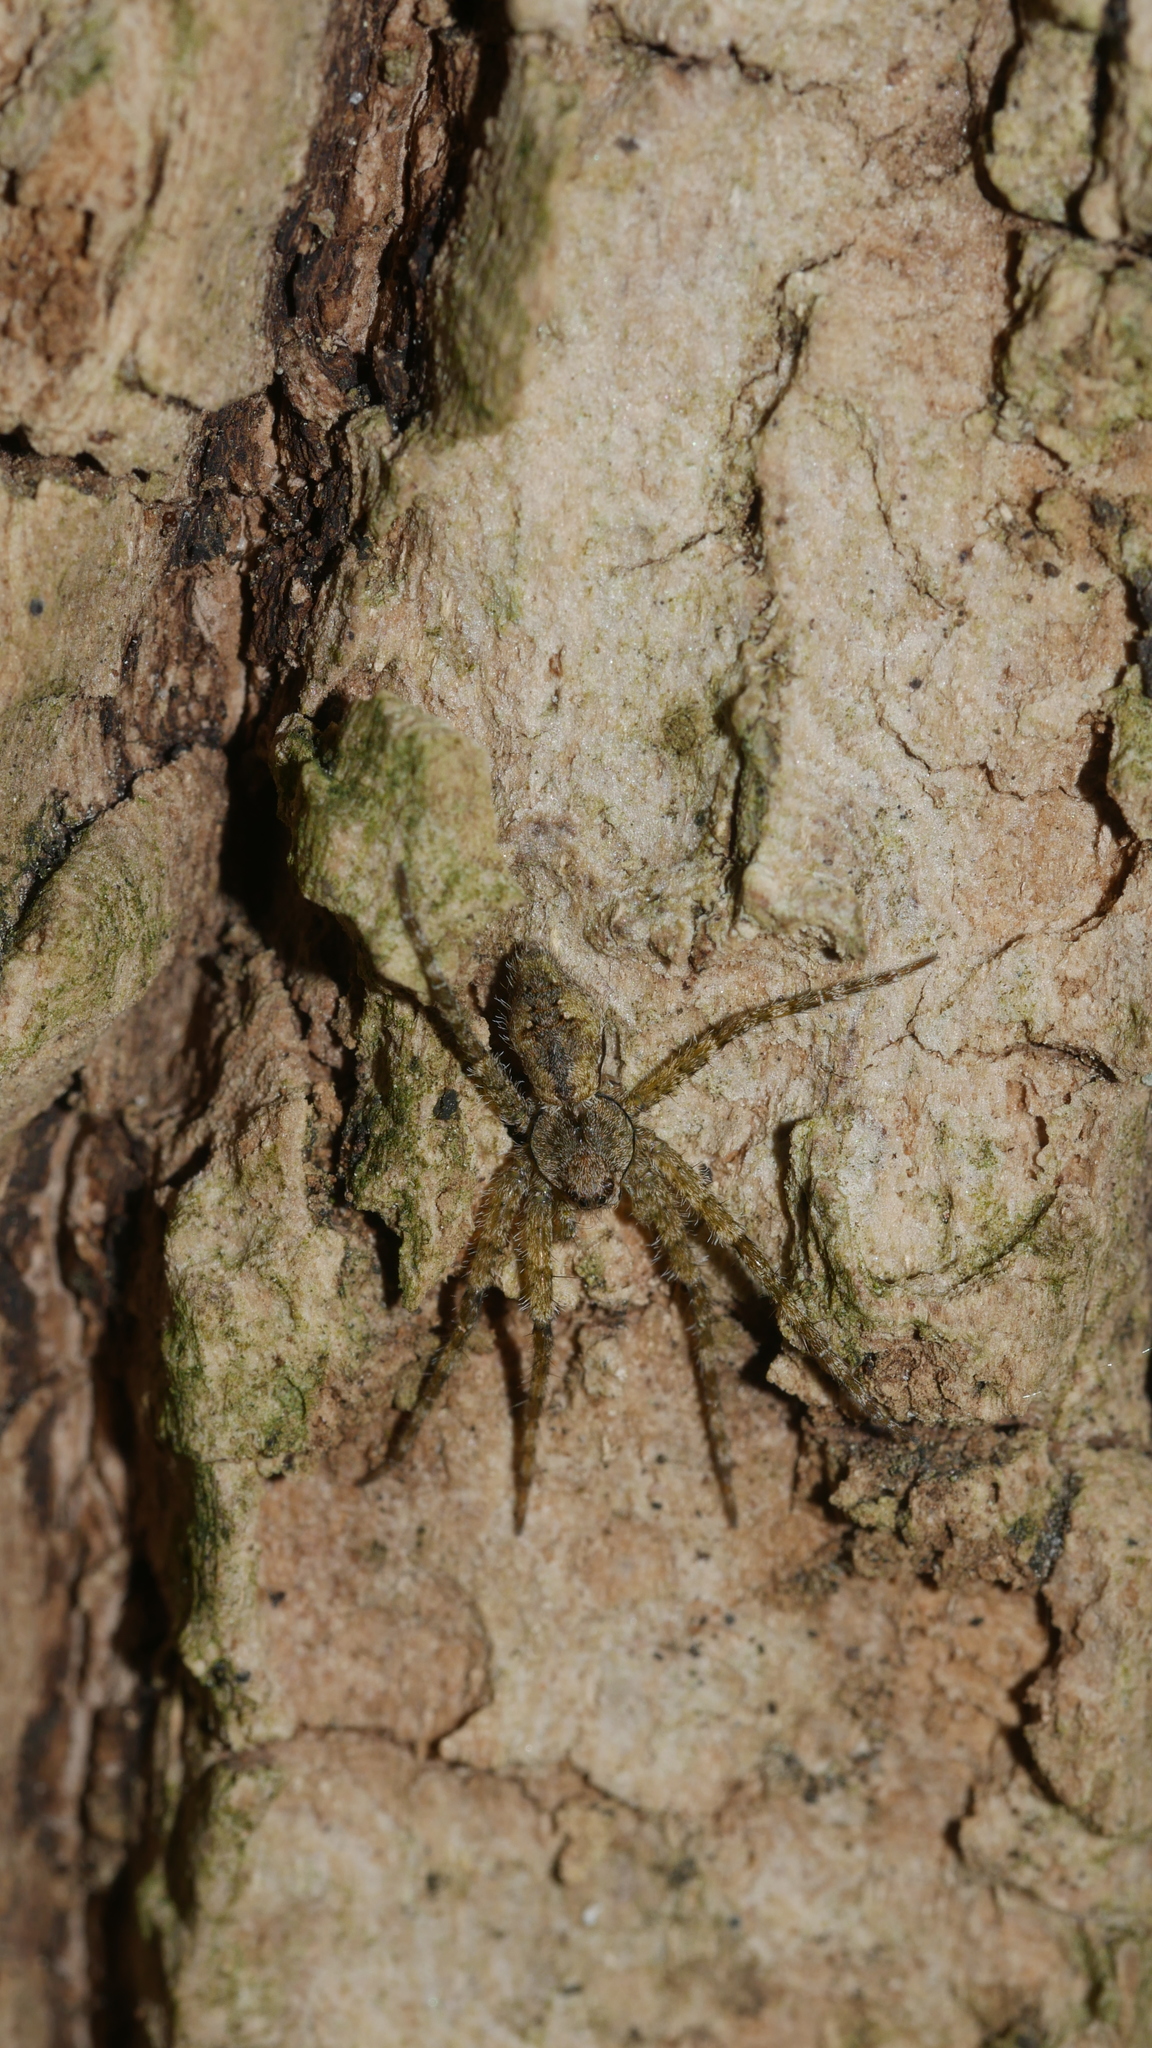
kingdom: Animalia
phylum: Arthropoda
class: Arachnida
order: Araneae
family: Pisauridae
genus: Dolomedes
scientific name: Dolomedes albineus
